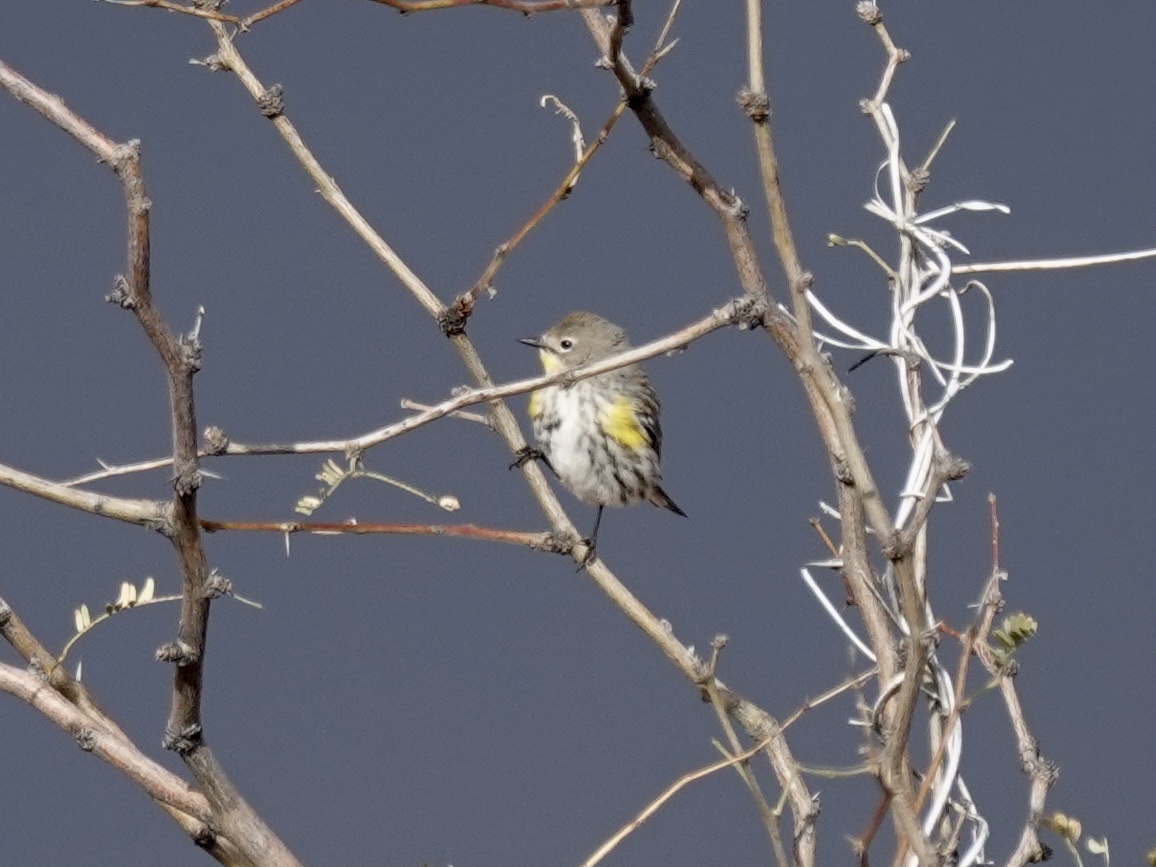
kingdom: Animalia
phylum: Chordata
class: Aves
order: Passeriformes
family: Parulidae
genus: Setophaga
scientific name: Setophaga auduboni
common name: Audubon's warbler
